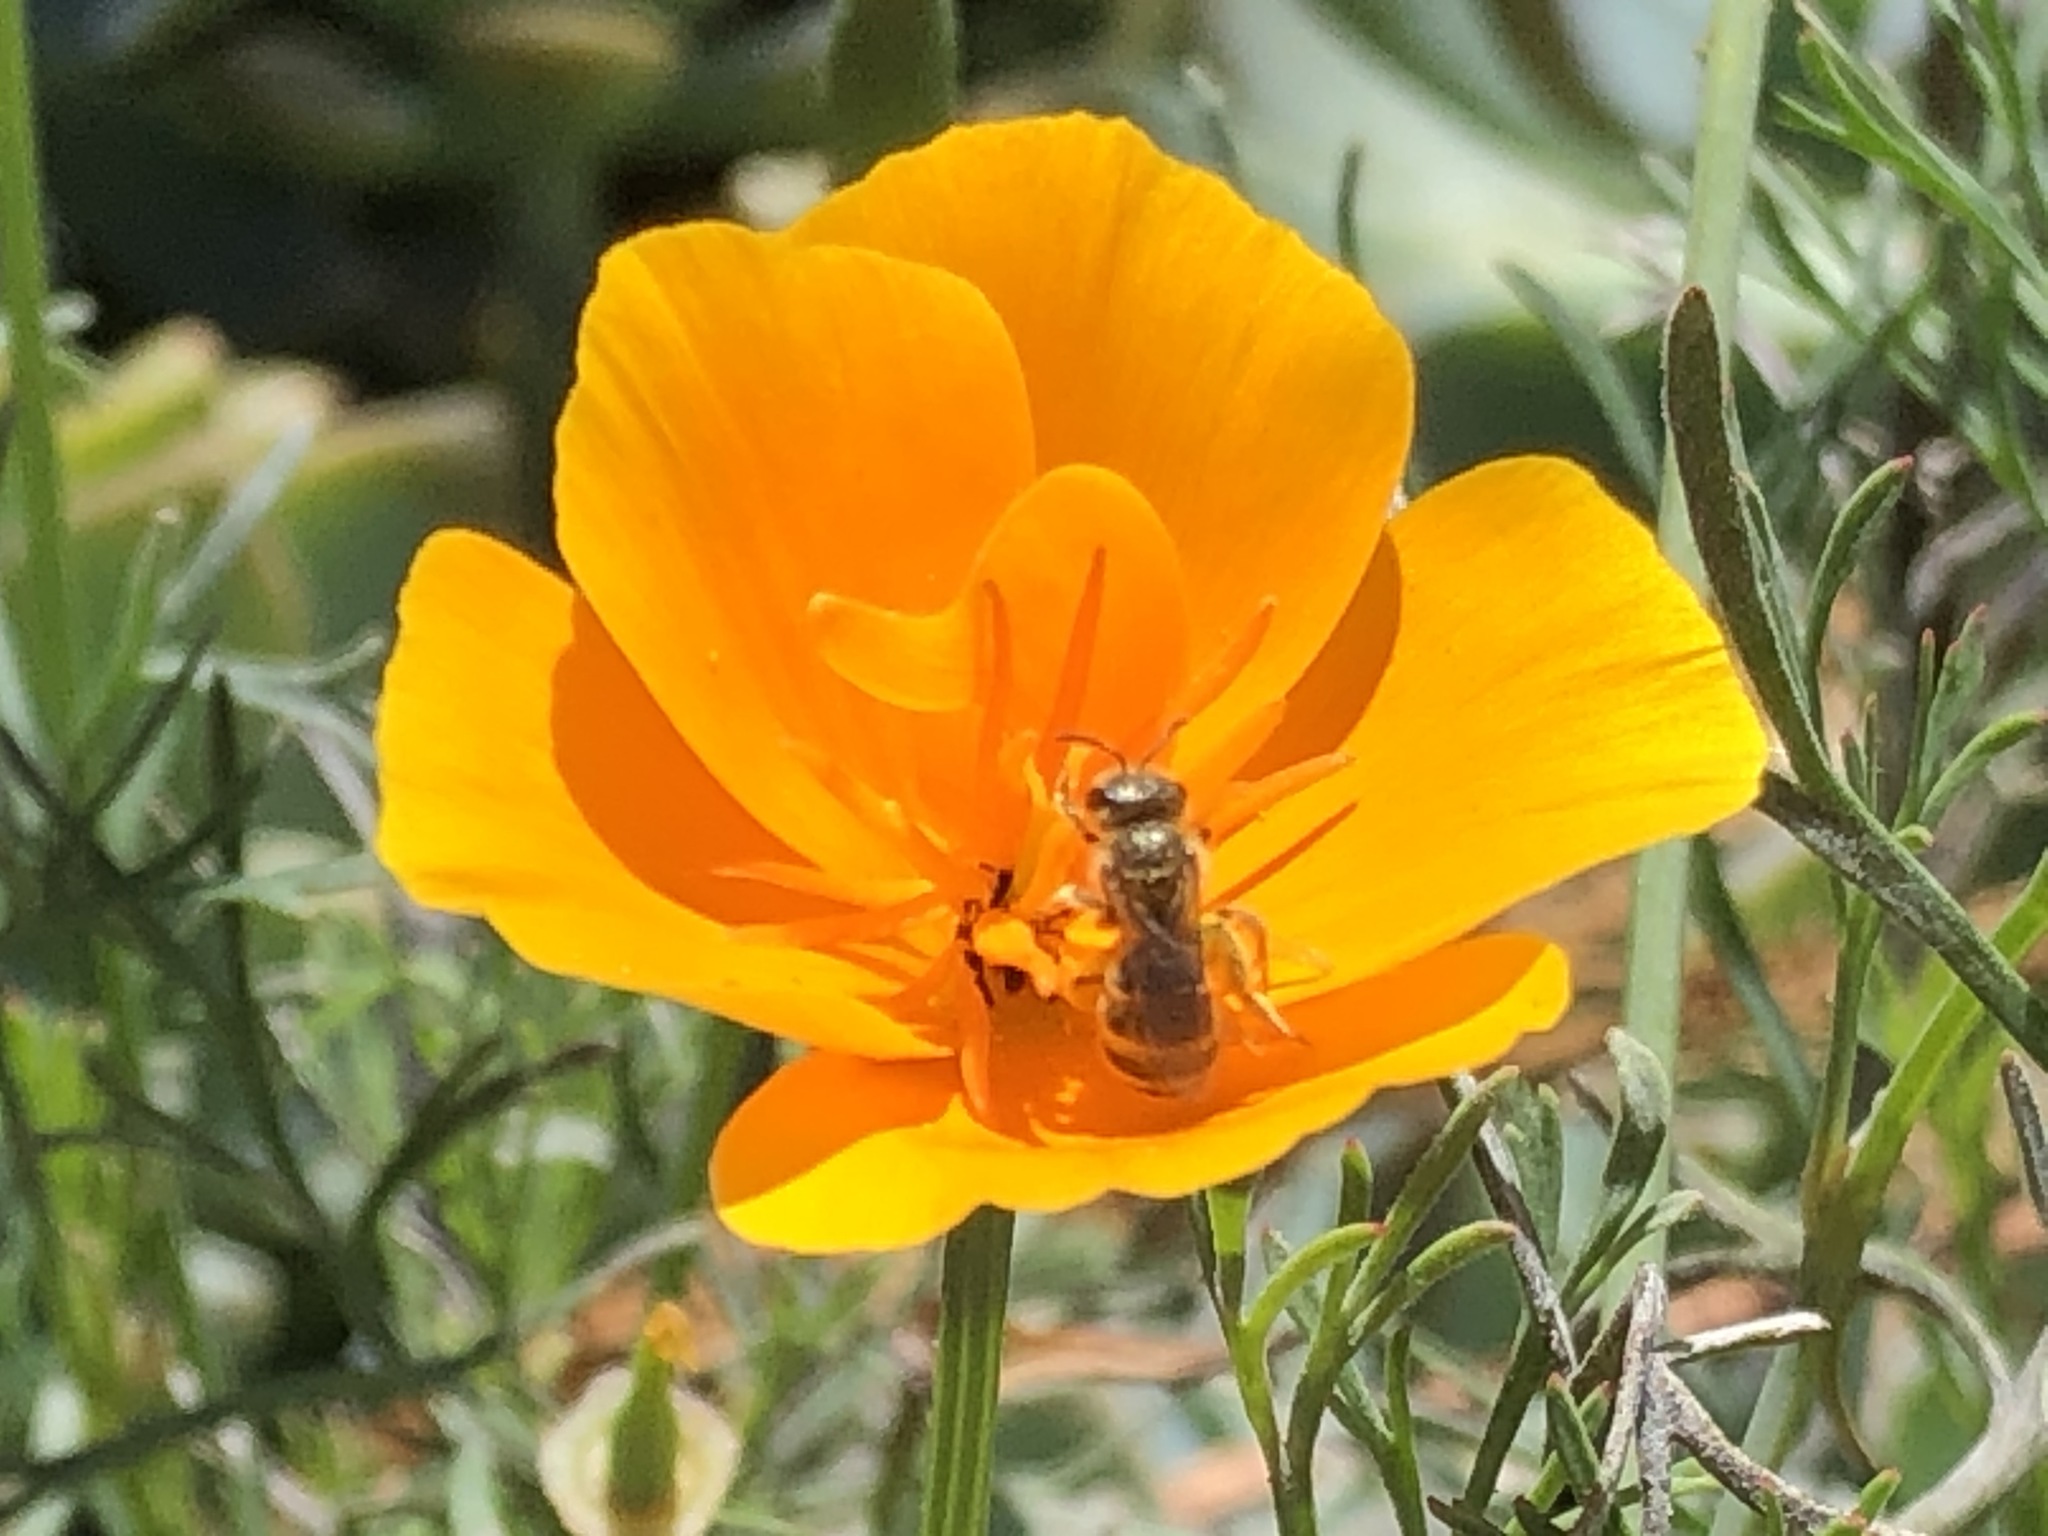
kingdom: Animalia
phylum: Arthropoda
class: Insecta
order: Hymenoptera
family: Halictidae
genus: Halictus
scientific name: Halictus tripartitus
